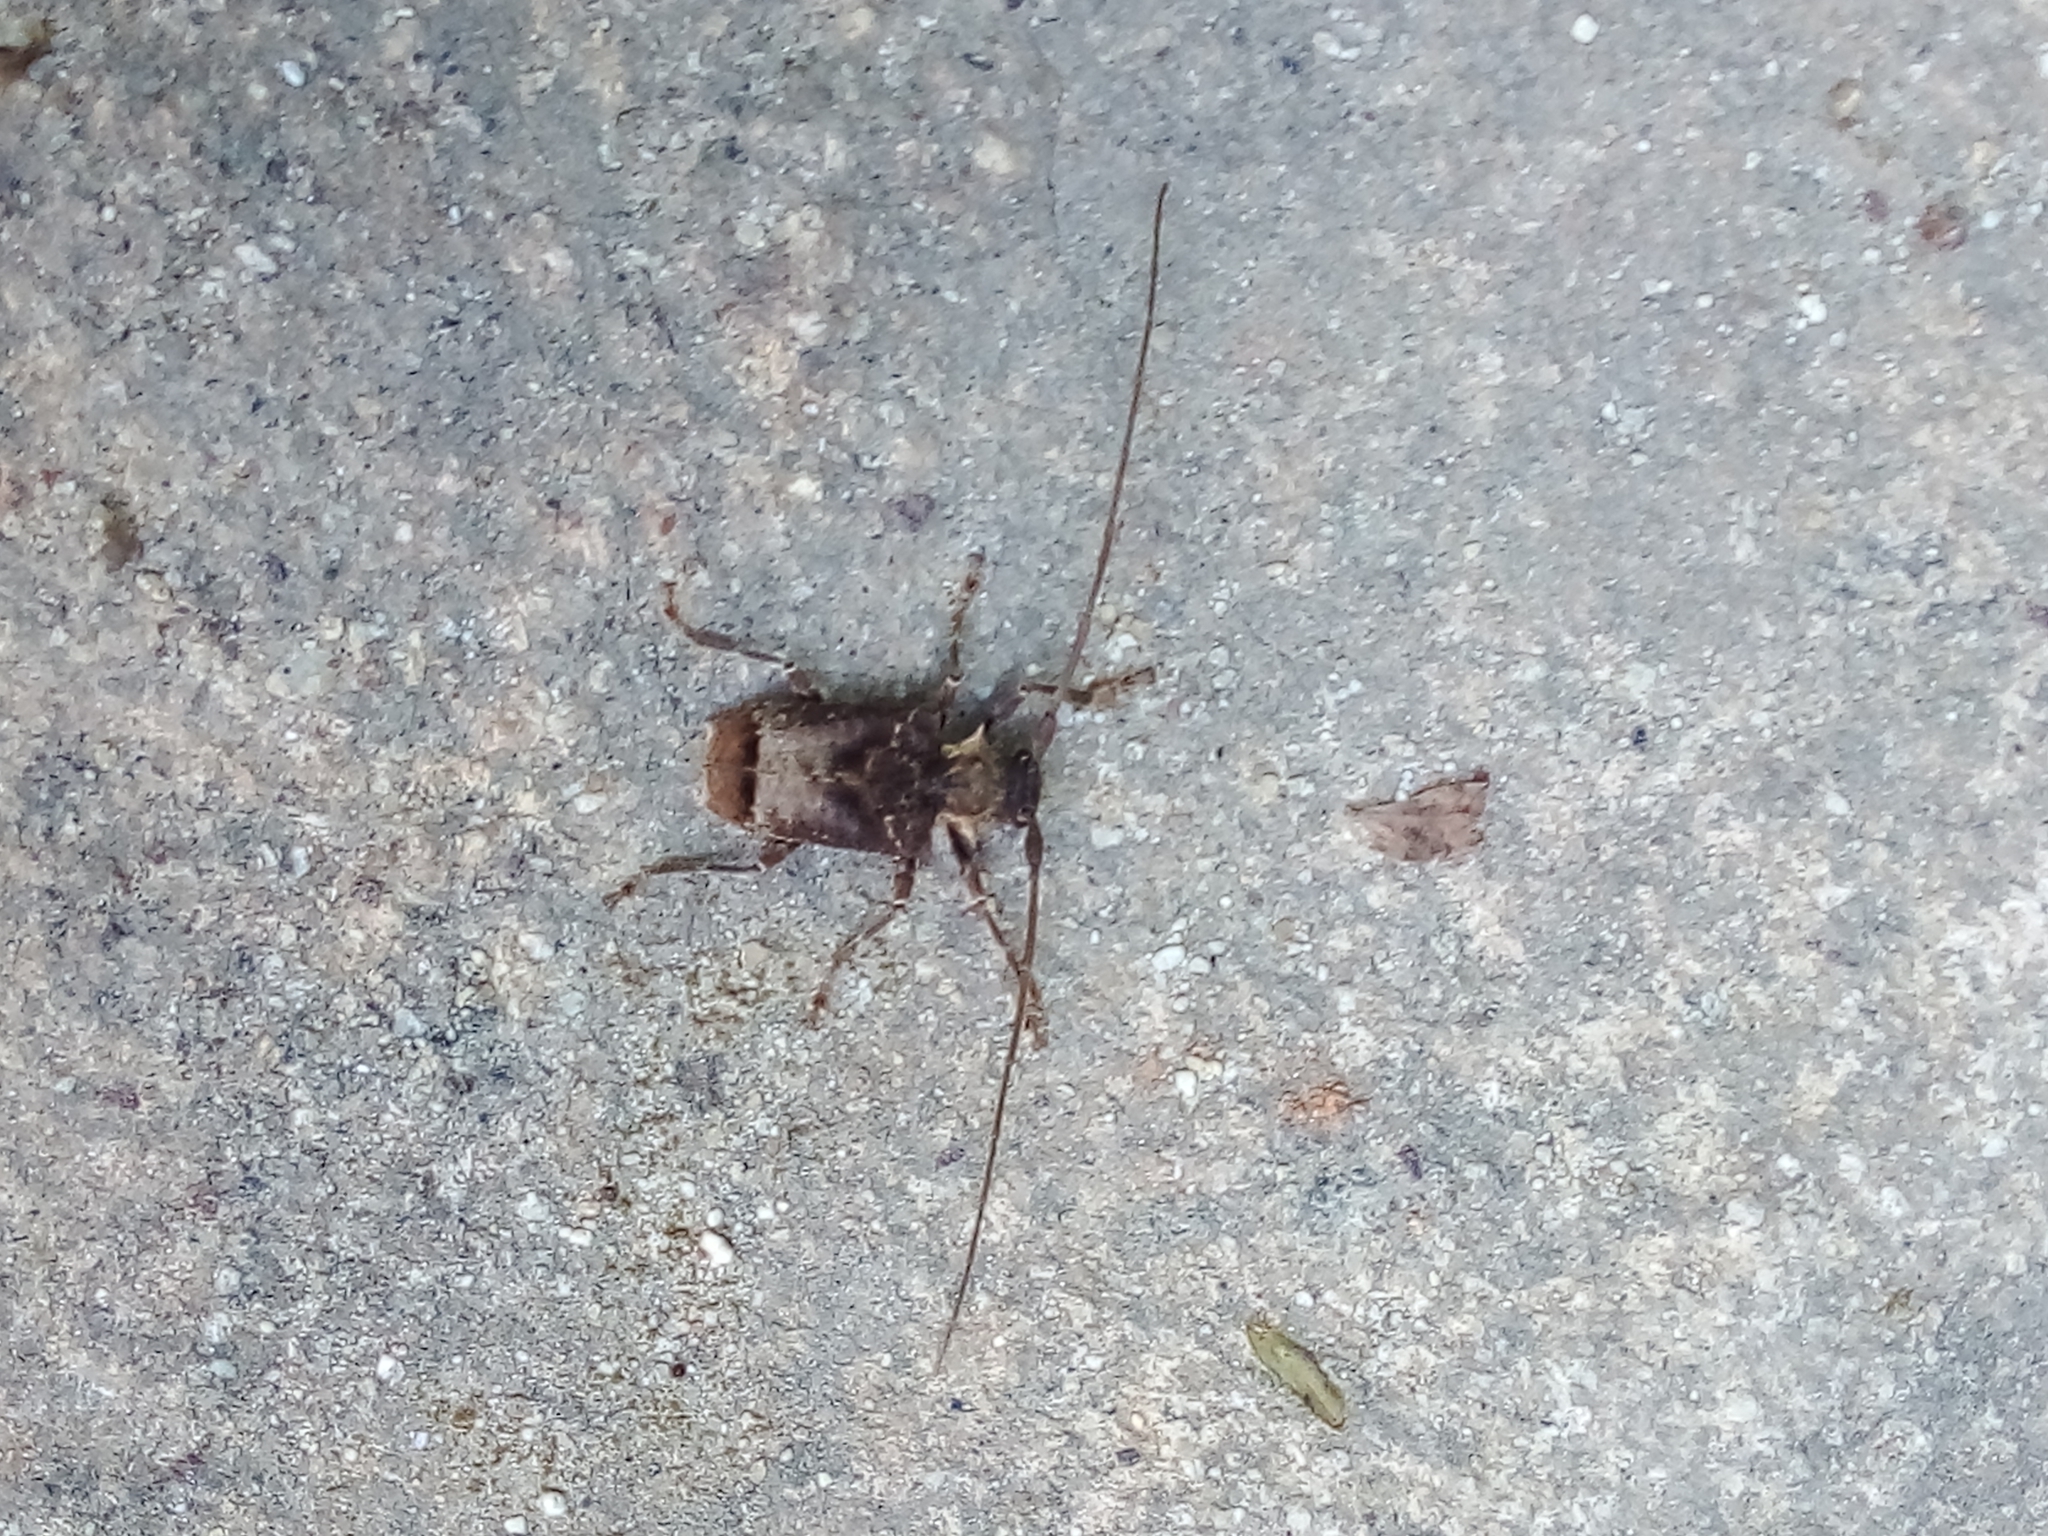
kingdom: Animalia
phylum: Arthropoda
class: Insecta
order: Coleoptera
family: Cerambycidae
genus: Polyrhaphis
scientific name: Polyrhaphis spinipennis
